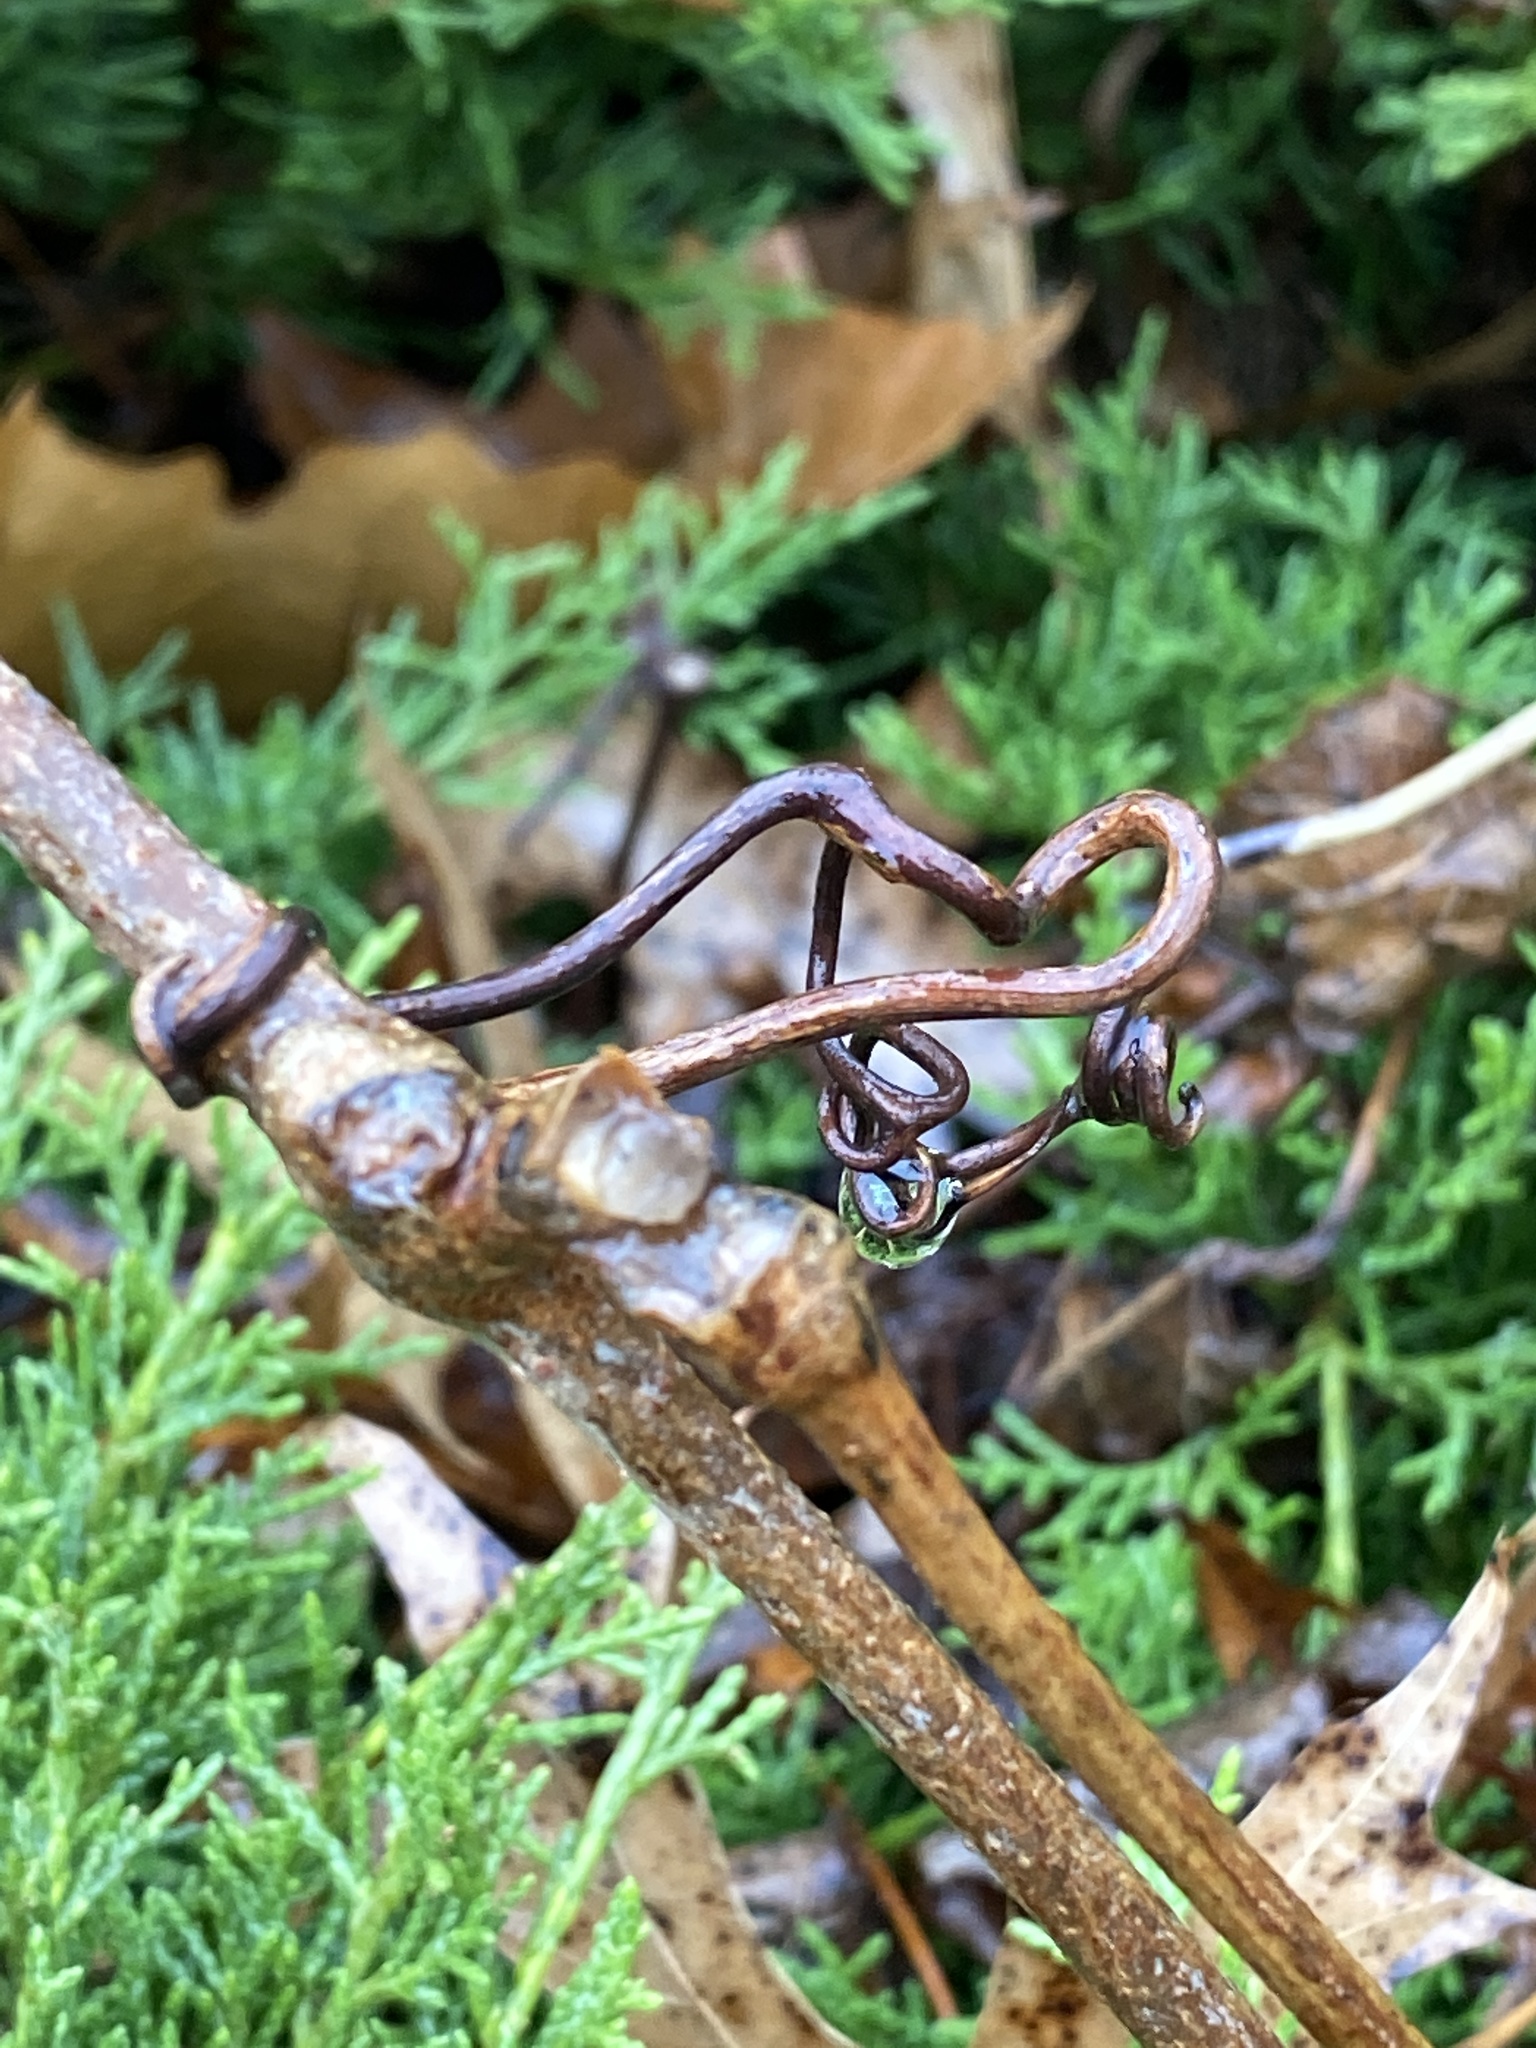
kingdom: Plantae
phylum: Tracheophyta
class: Magnoliopsida
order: Vitales
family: Vitaceae
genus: Ampelopsis
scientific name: Ampelopsis glandulosa
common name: Amur peppervine
